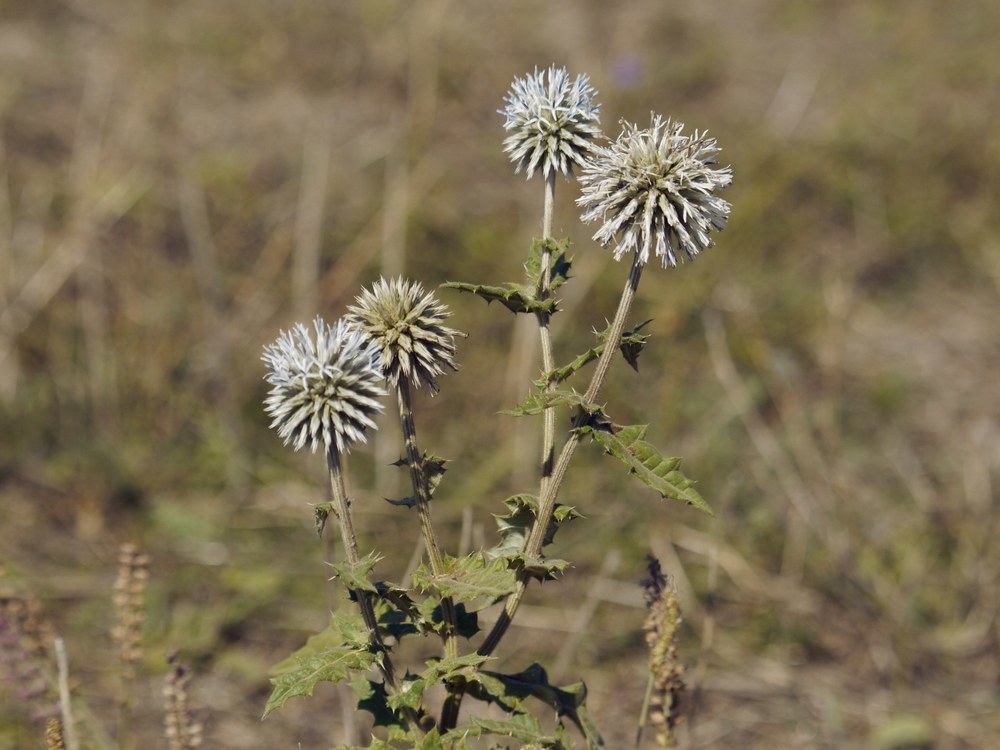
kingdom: Plantae
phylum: Tracheophyta
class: Magnoliopsida
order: Asterales
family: Asteraceae
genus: Echinops
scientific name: Echinops sphaerocephalus
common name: Glandular globe-thistle
